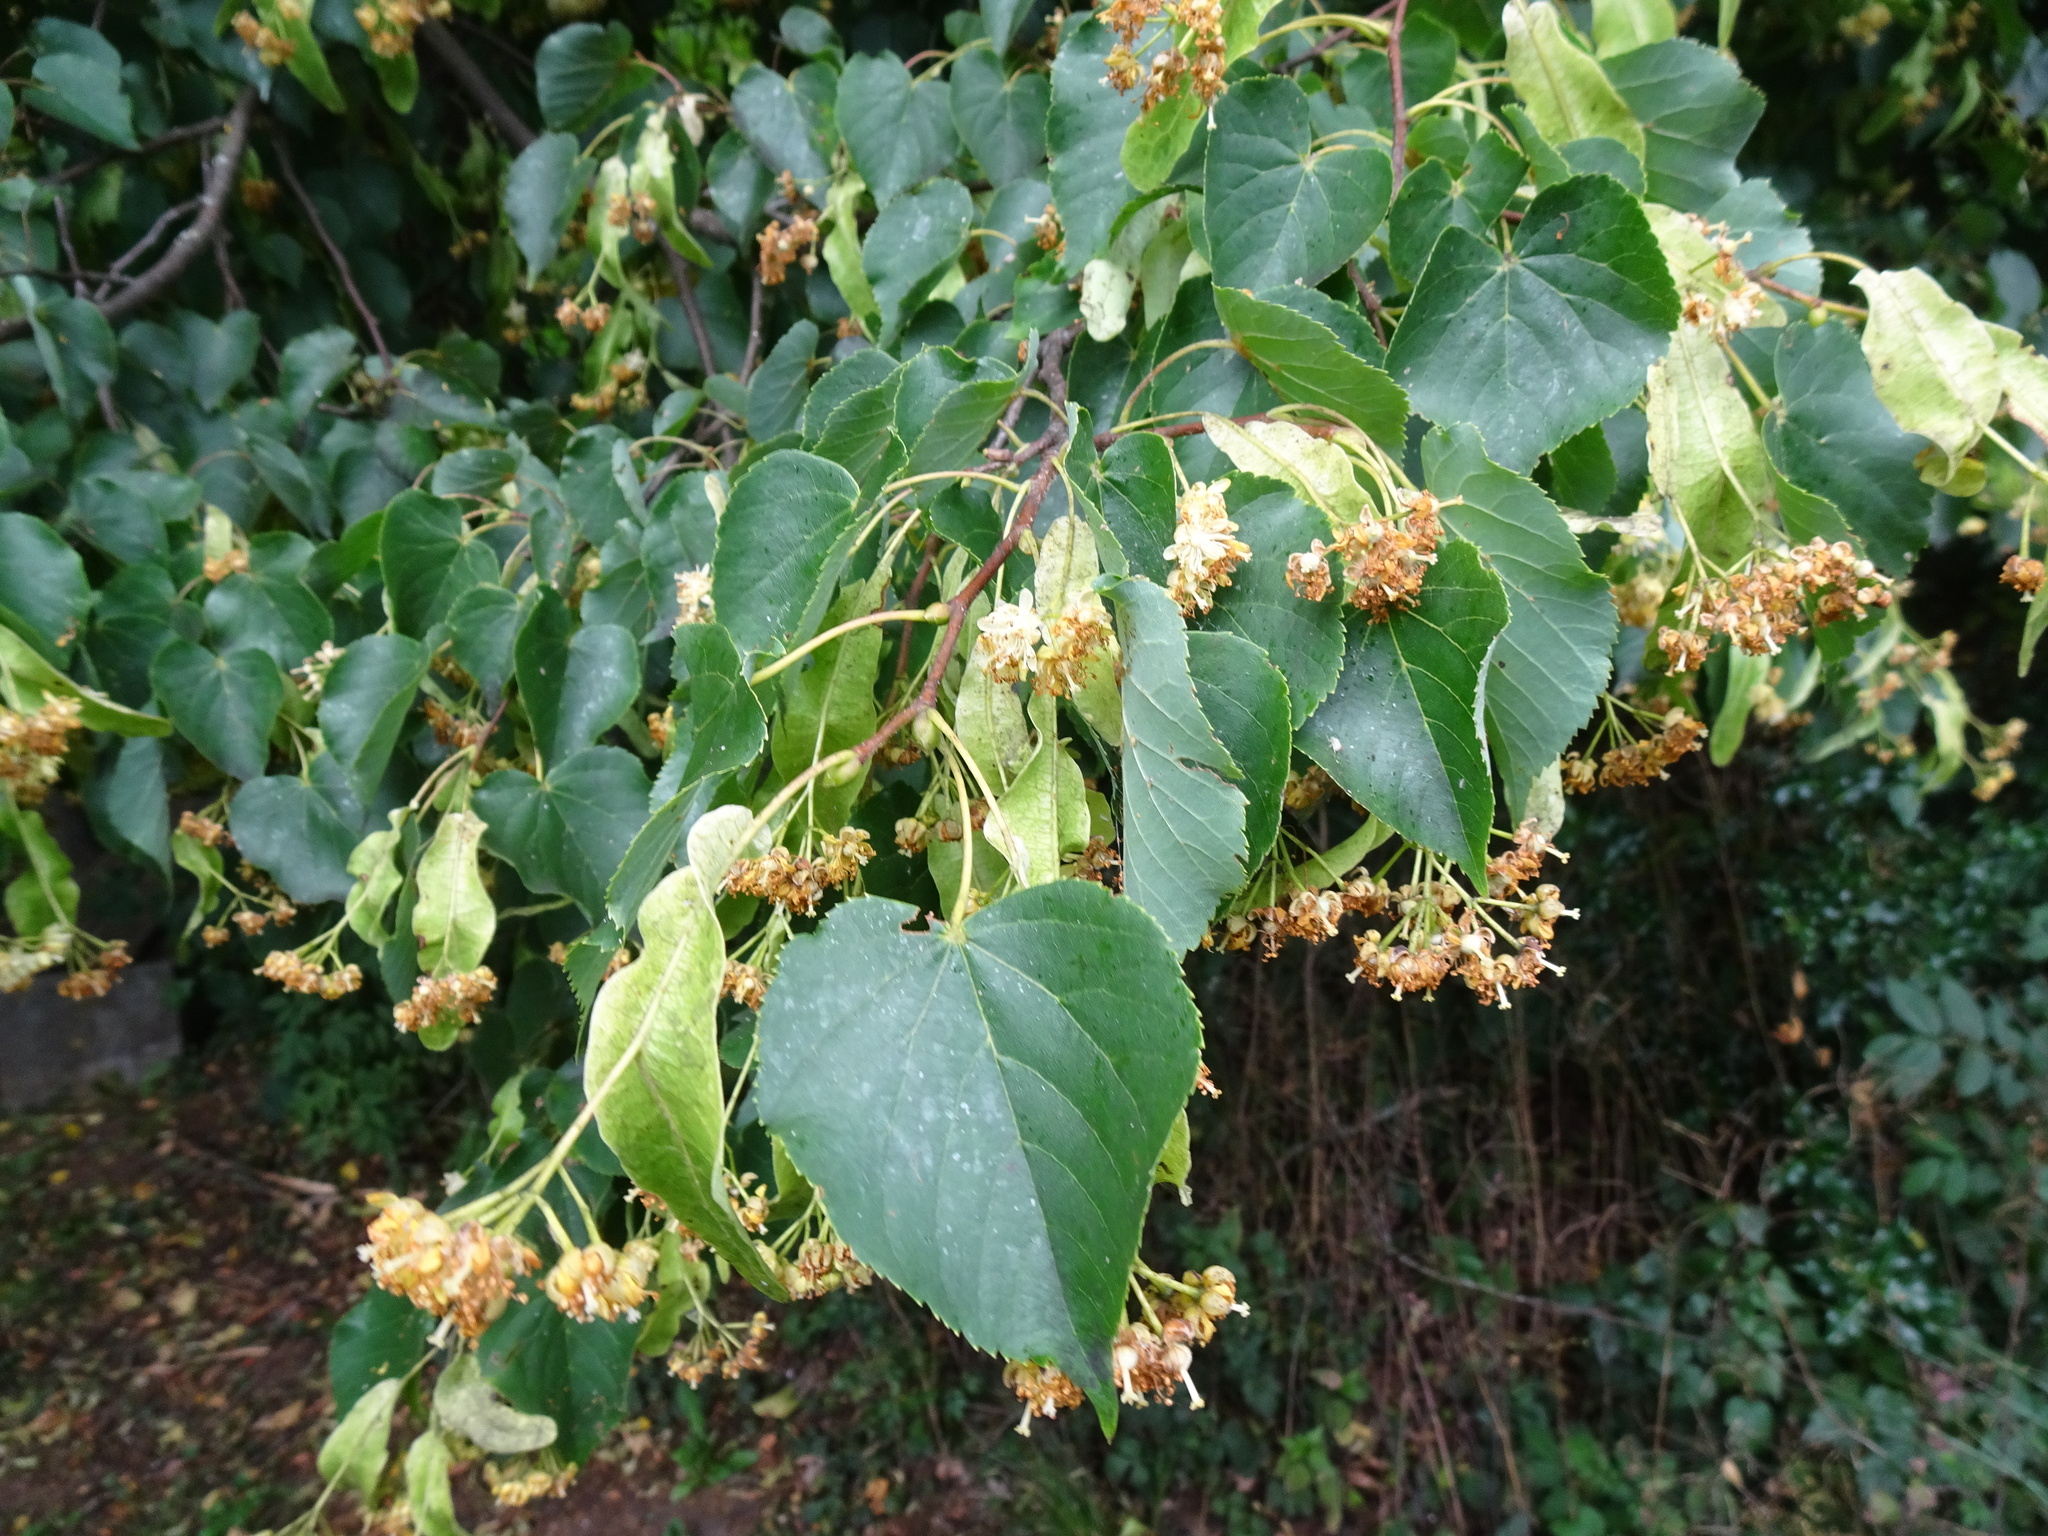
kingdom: Plantae
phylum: Tracheophyta
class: Magnoliopsida
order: Malvales
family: Malvaceae
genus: Tilia
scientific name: Tilia cordata
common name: Small-leaved lime
